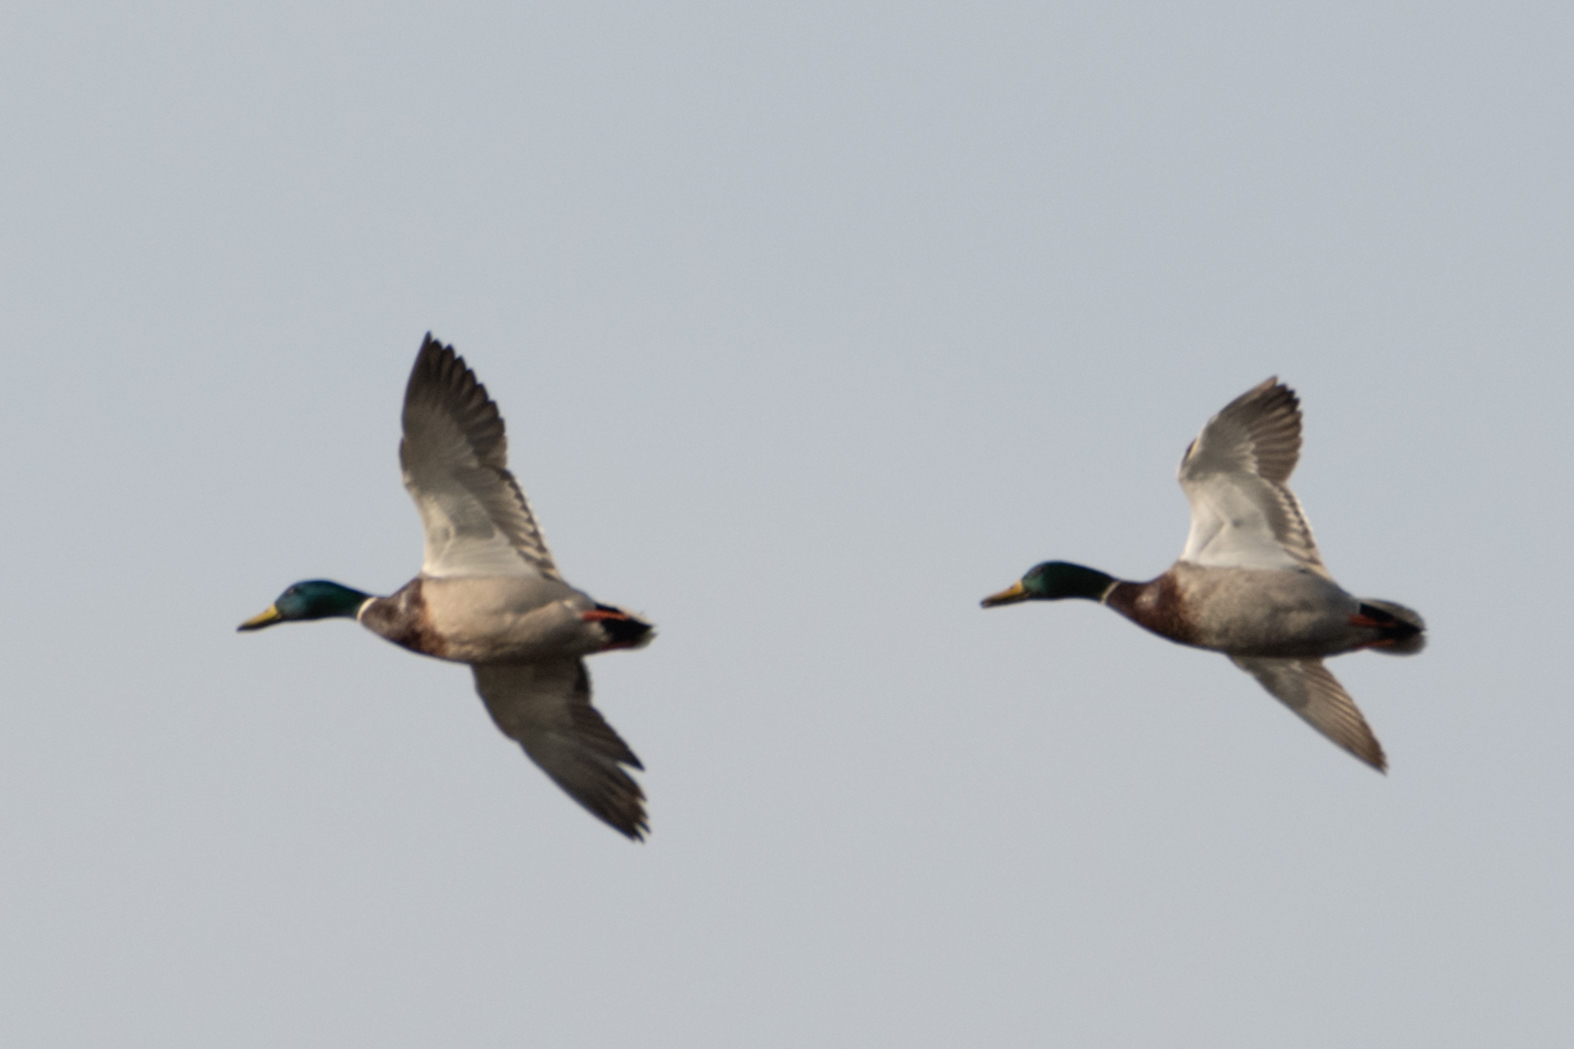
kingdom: Animalia
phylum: Chordata
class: Aves
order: Anseriformes
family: Anatidae
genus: Anas
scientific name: Anas platyrhynchos
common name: Mallard
